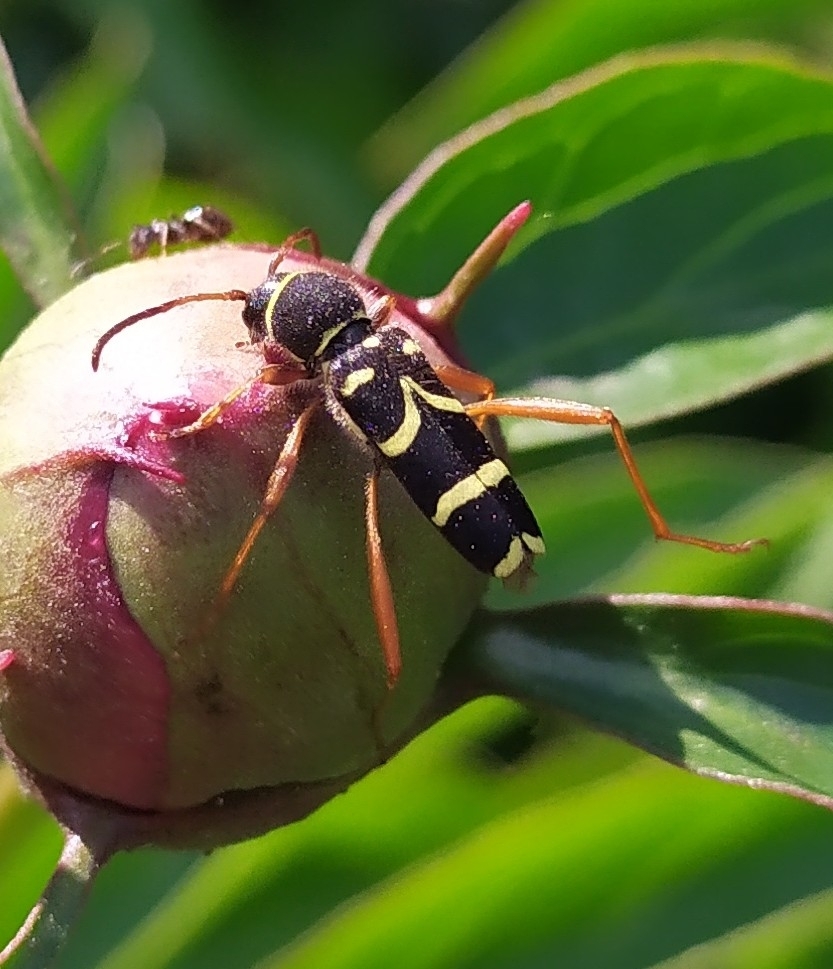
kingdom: Animalia
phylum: Arthropoda
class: Insecta
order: Coleoptera
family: Cerambycidae
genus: Clytus
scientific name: Clytus arietis
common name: Wasp beetle
